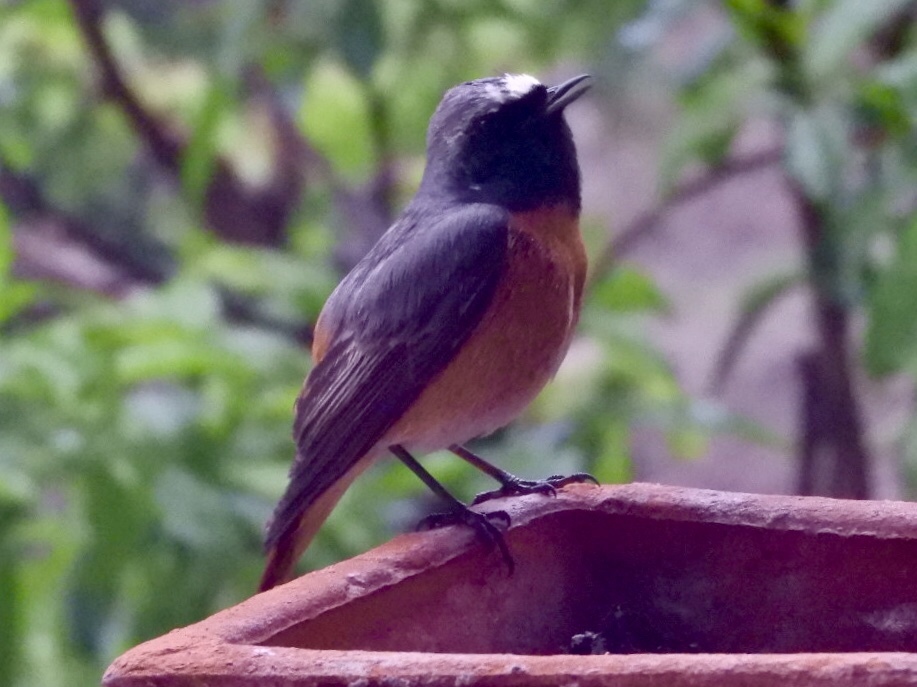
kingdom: Animalia
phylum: Chordata
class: Aves
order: Passeriformes
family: Muscicapidae
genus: Phoenicurus
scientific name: Phoenicurus phoenicurus
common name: Common redstart
